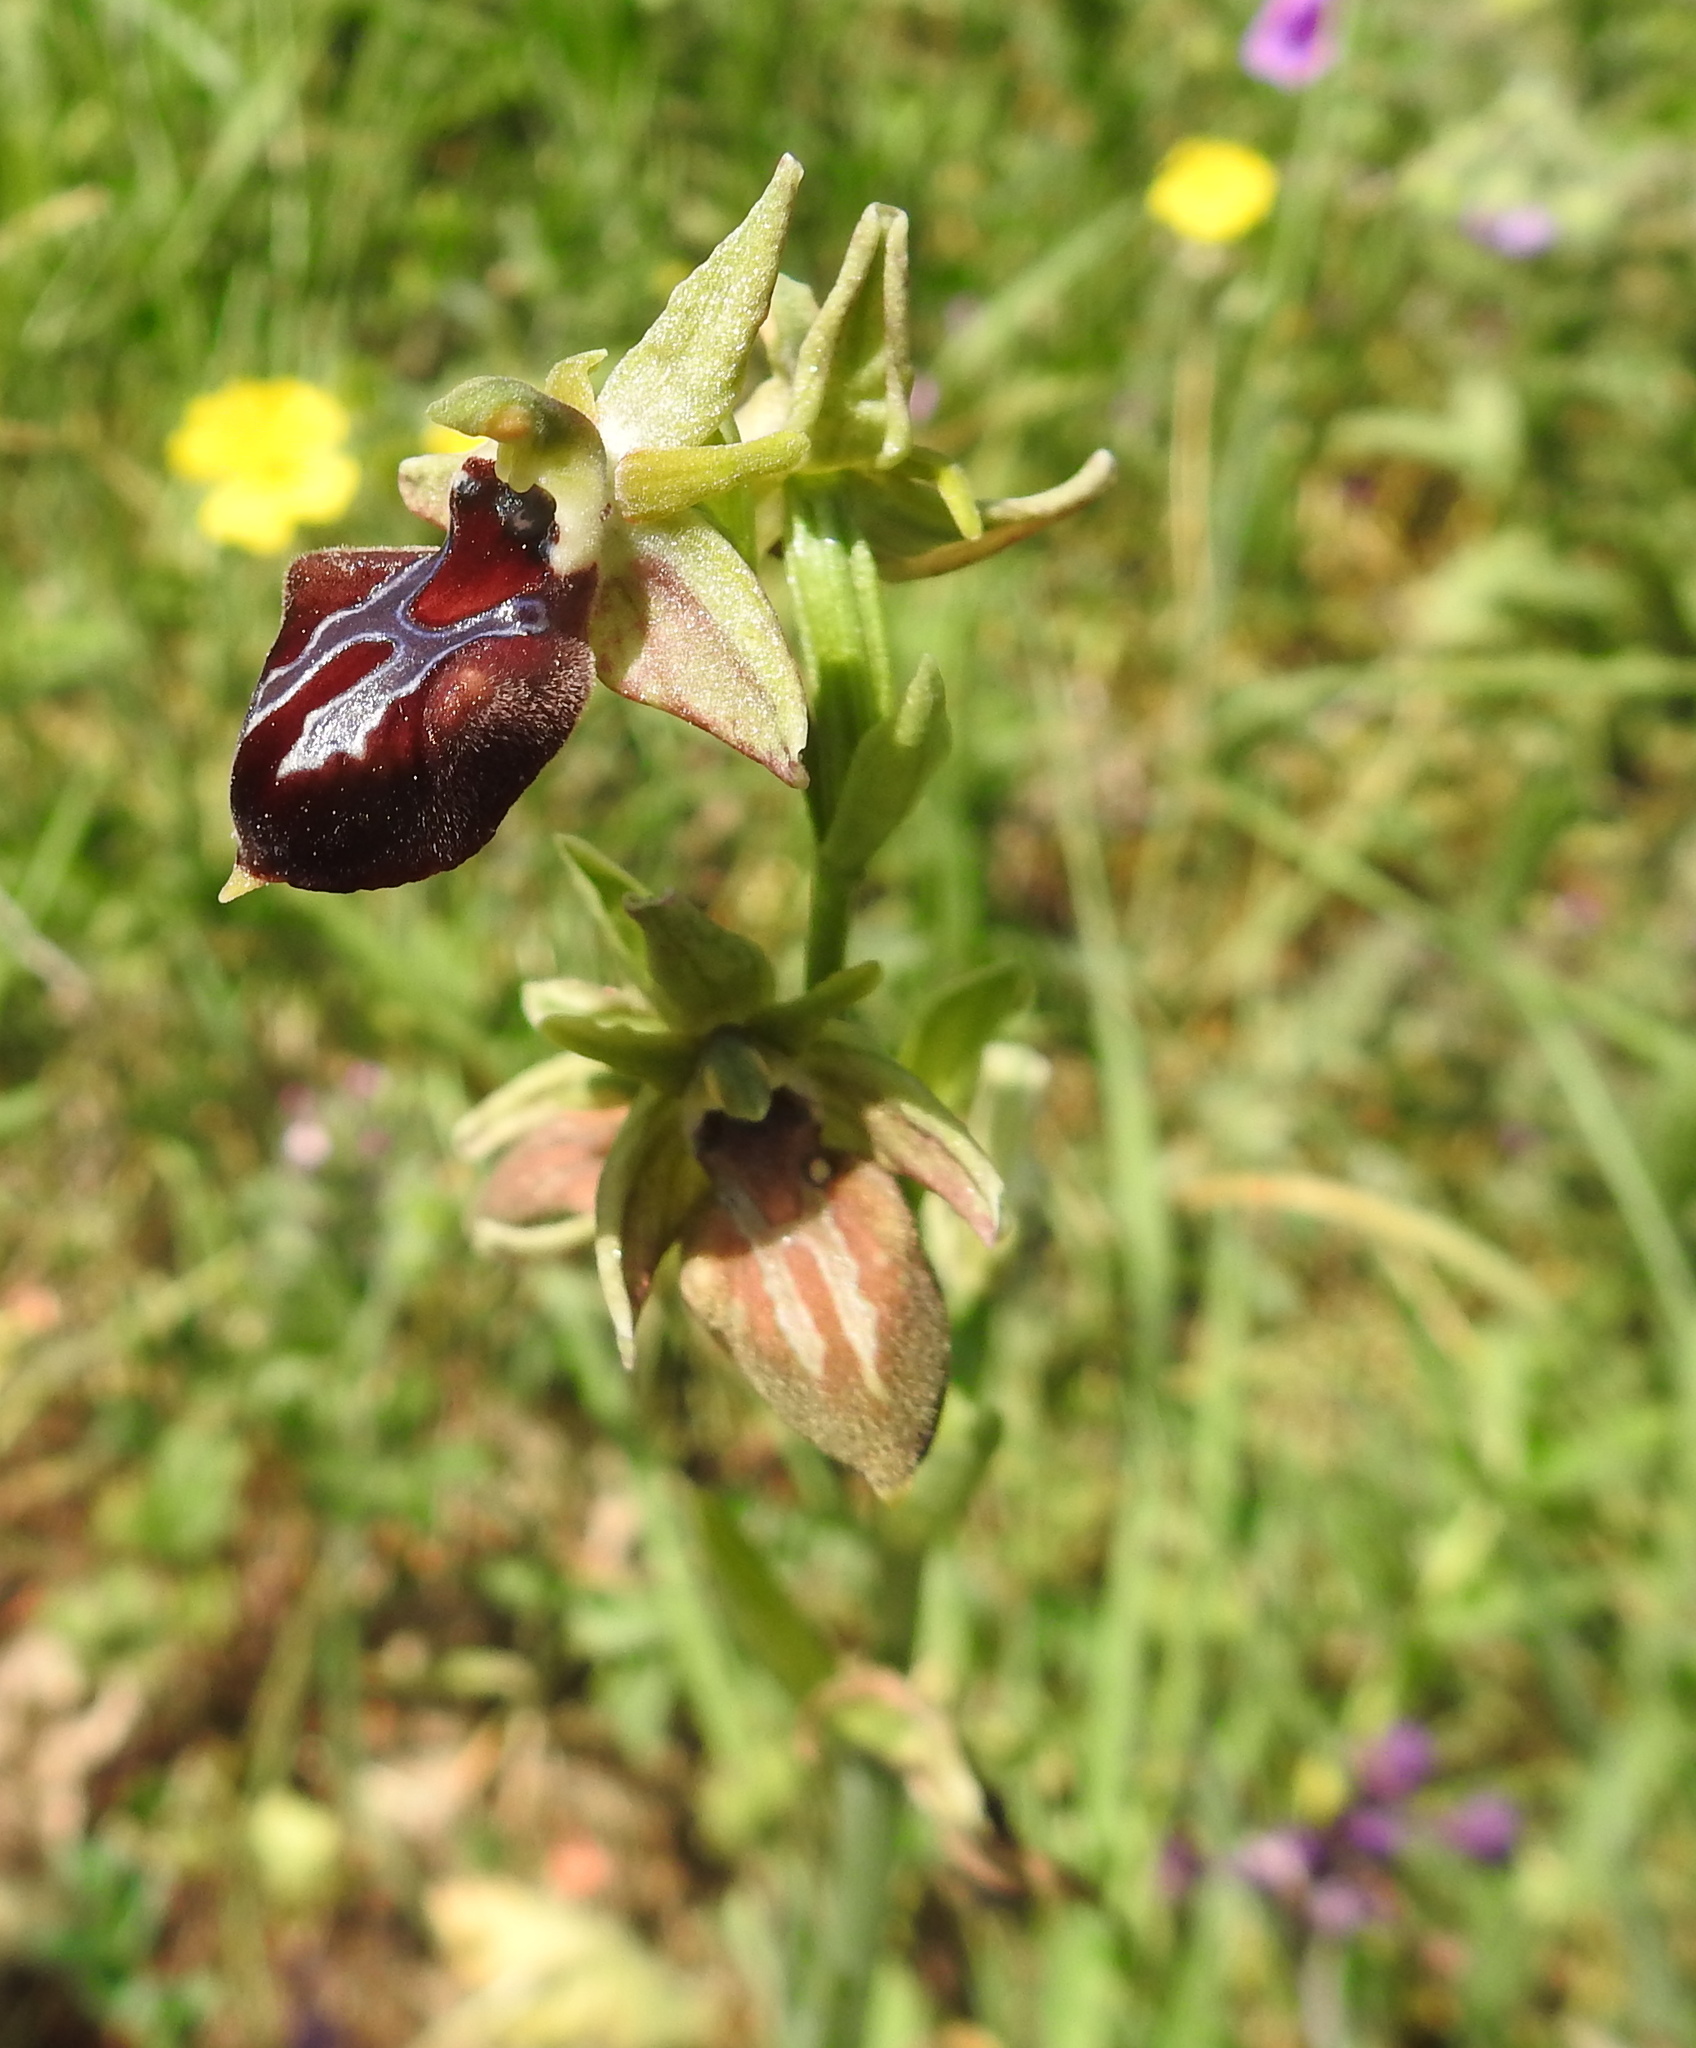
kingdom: Plantae
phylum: Tracheophyta
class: Liliopsida
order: Asparagales
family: Orchidaceae
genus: Ophrys
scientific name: Ophrys sphegodes
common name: Early spider-orchid
